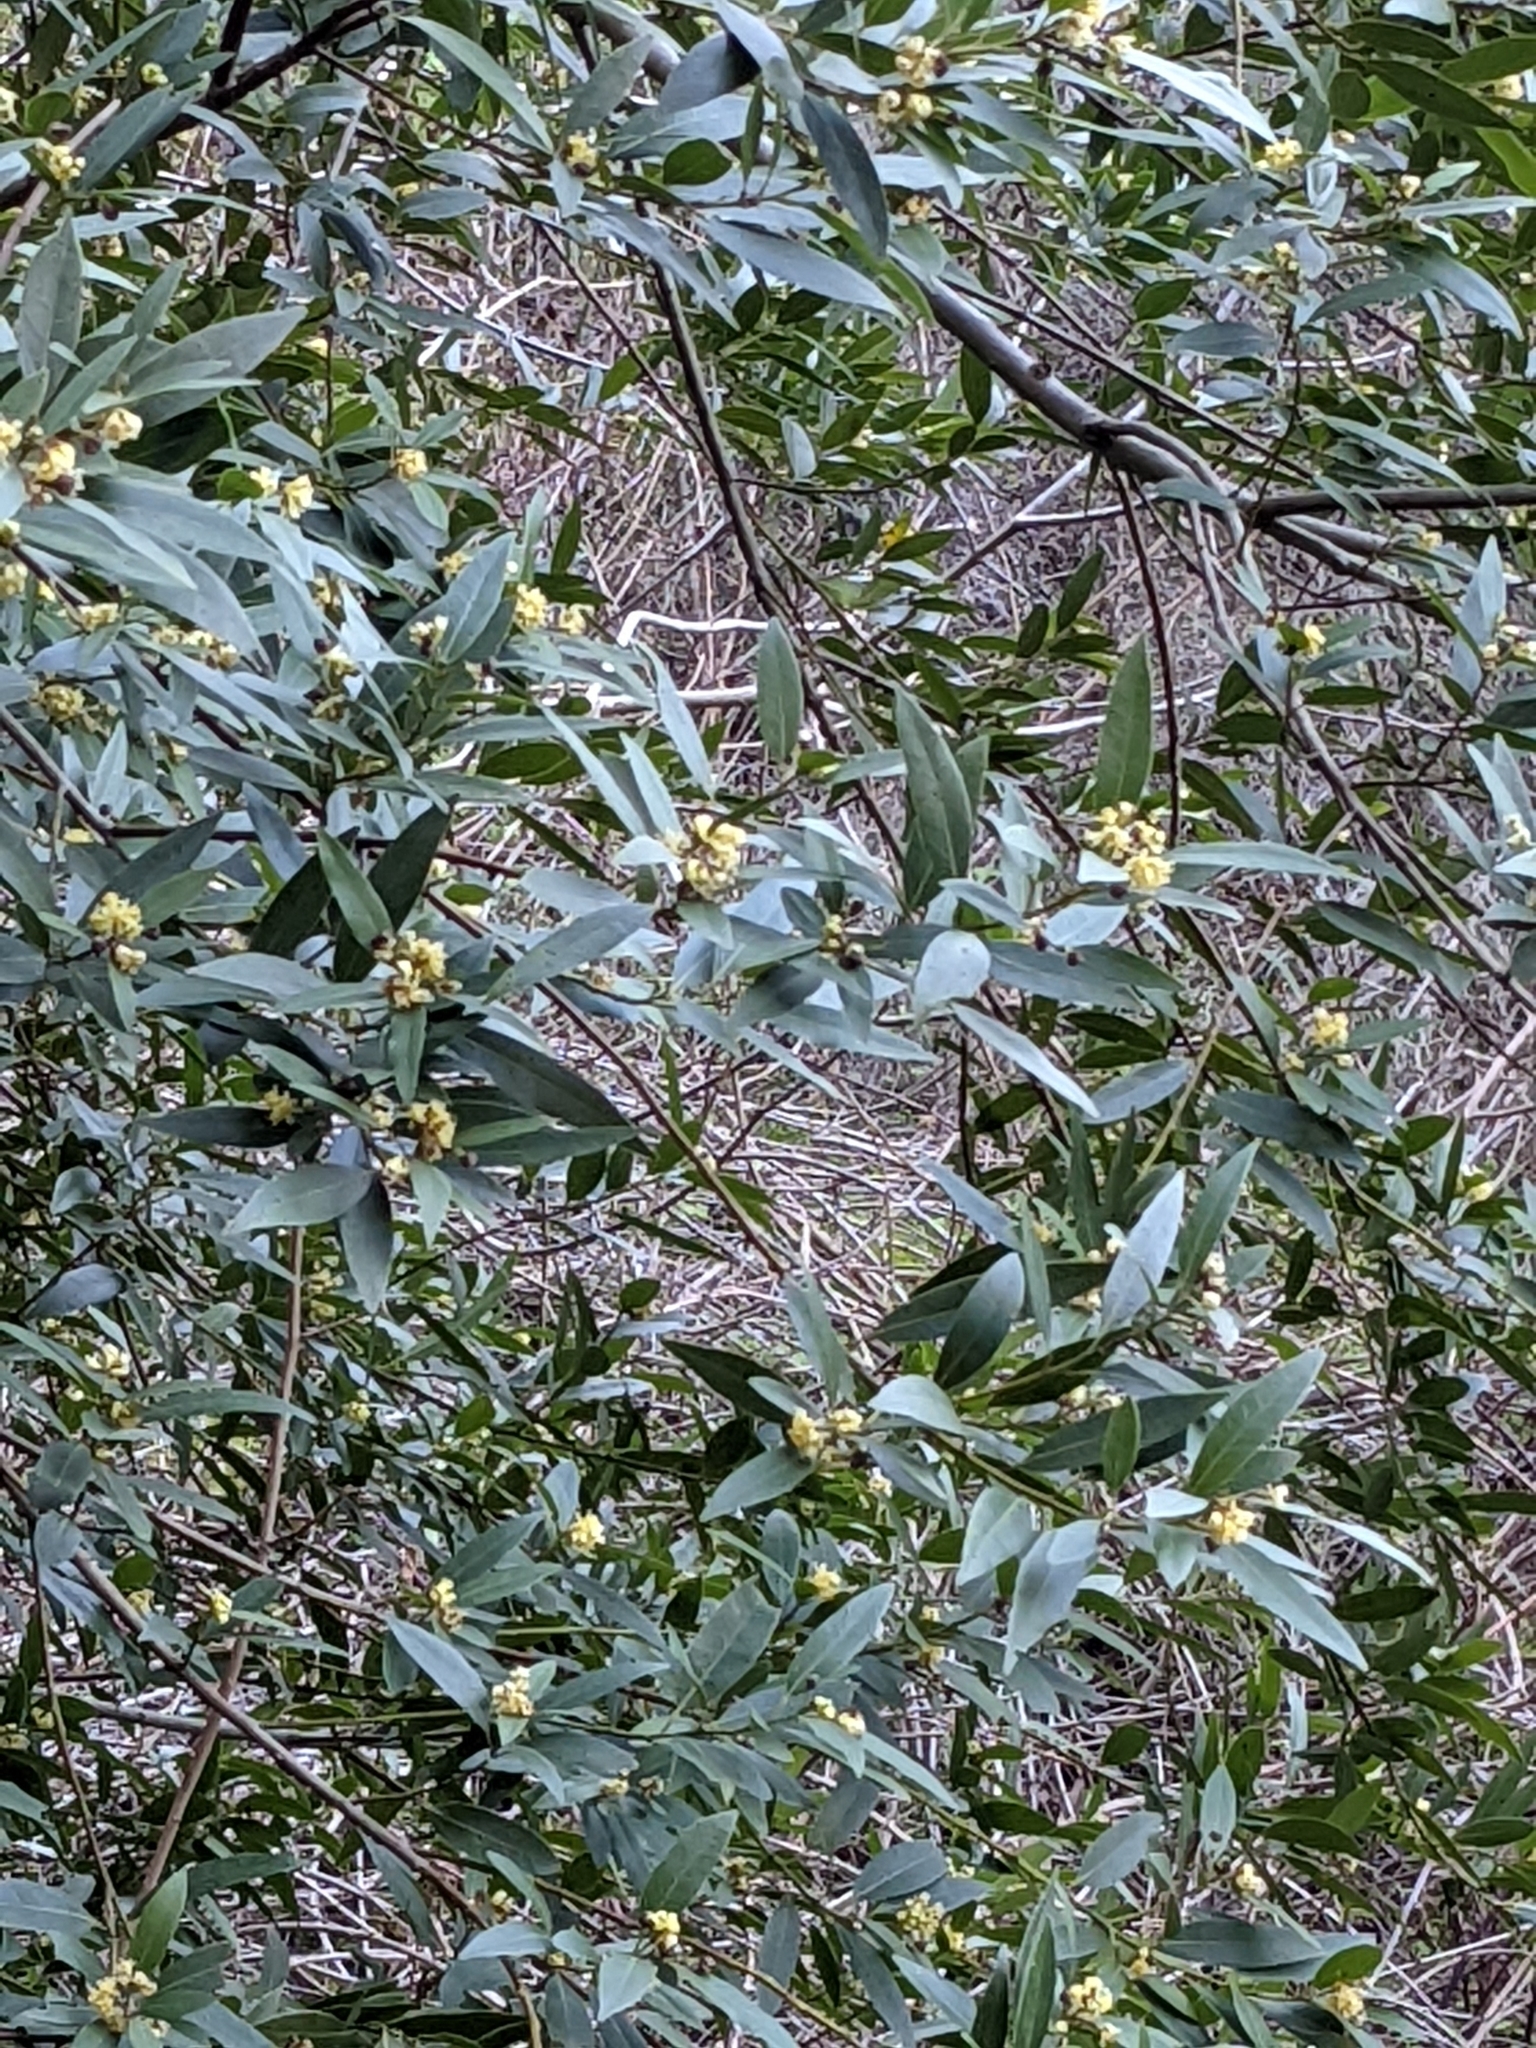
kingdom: Plantae
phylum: Tracheophyta
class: Magnoliopsida
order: Laurales
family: Lauraceae
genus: Umbellularia
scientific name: Umbellularia californica
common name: California bay
